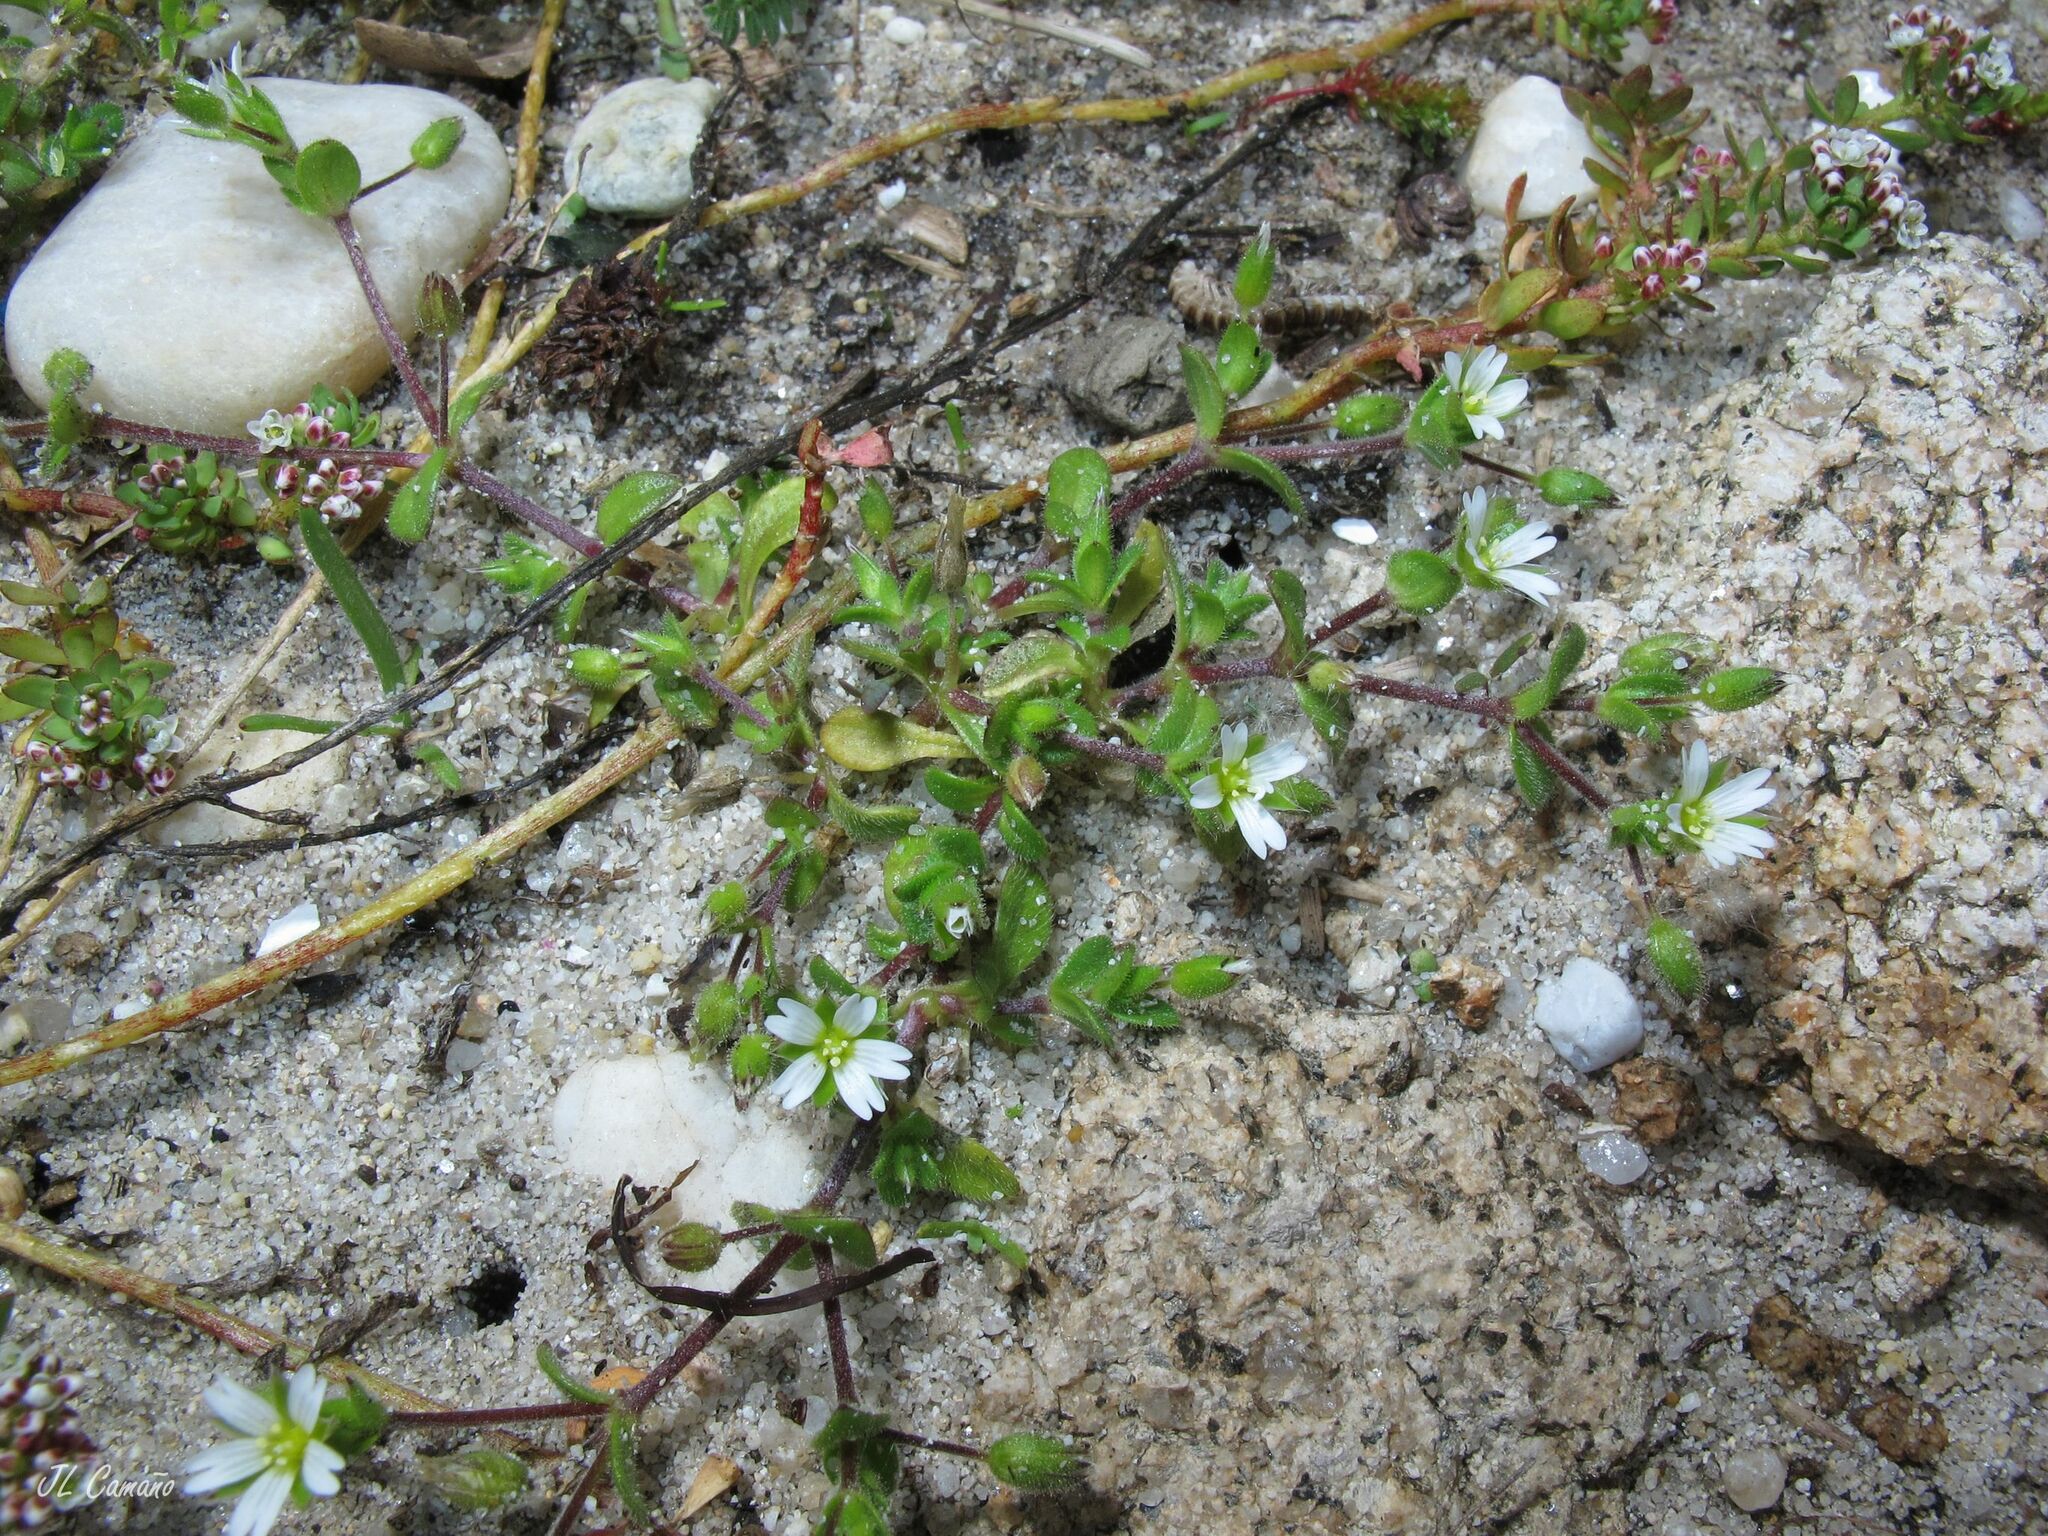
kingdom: Plantae
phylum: Tracheophyta
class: Magnoliopsida
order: Caryophyllales
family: Caryophyllaceae
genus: Cerastium
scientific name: Cerastium diffusum
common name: Fourstamen chickweed
